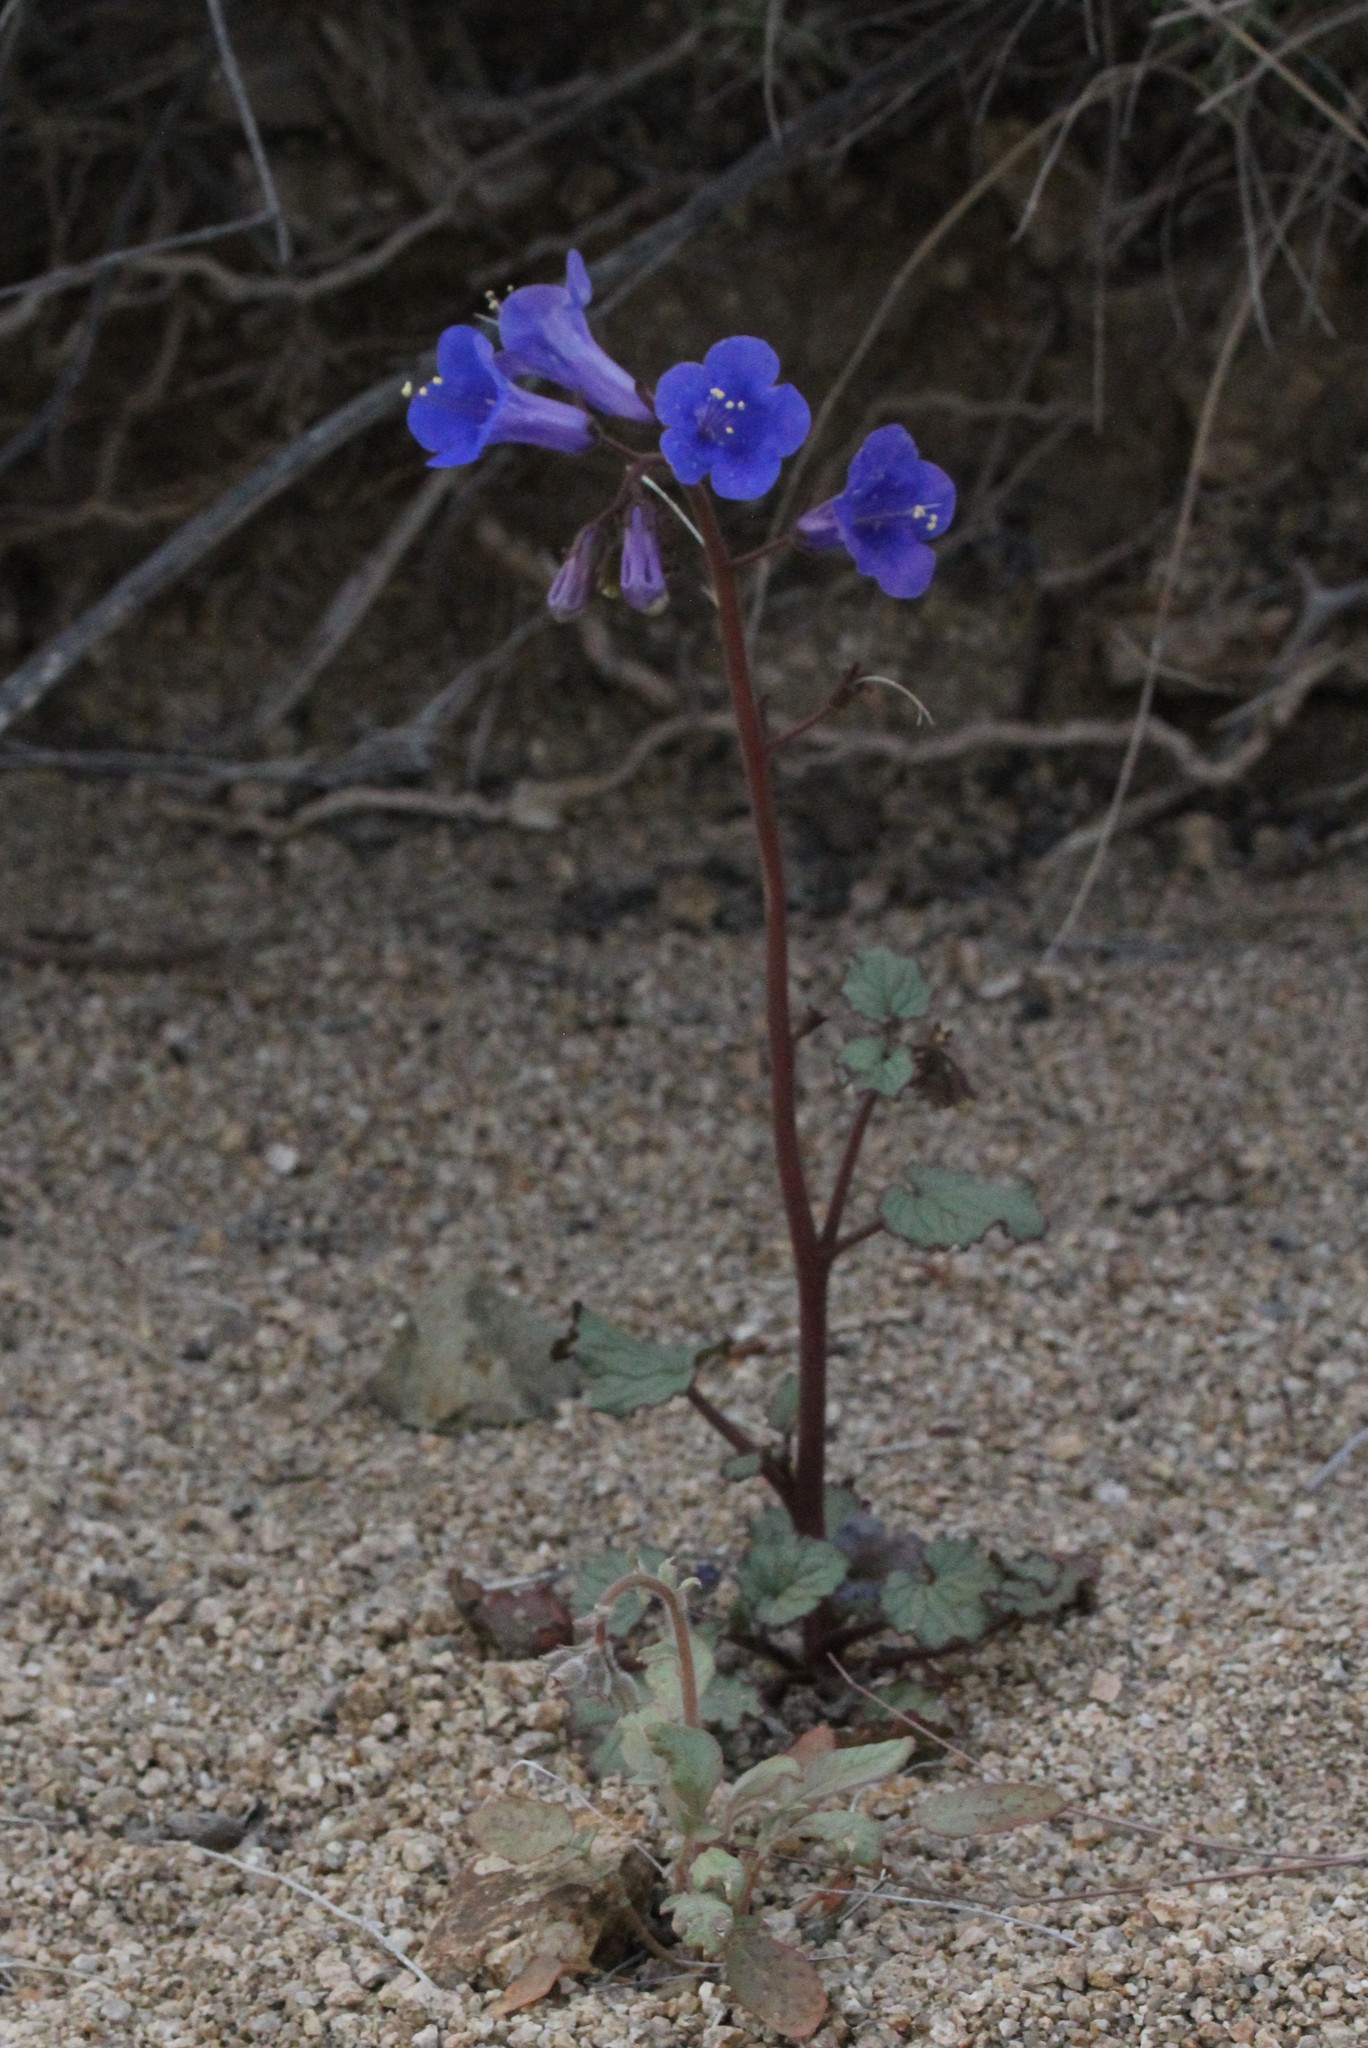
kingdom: Plantae
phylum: Tracheophyta
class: Magnoliopsida
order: Boraginales
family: Hydrophyllaceae
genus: Phacelia
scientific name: Phacelia campanularia
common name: California bluebell
